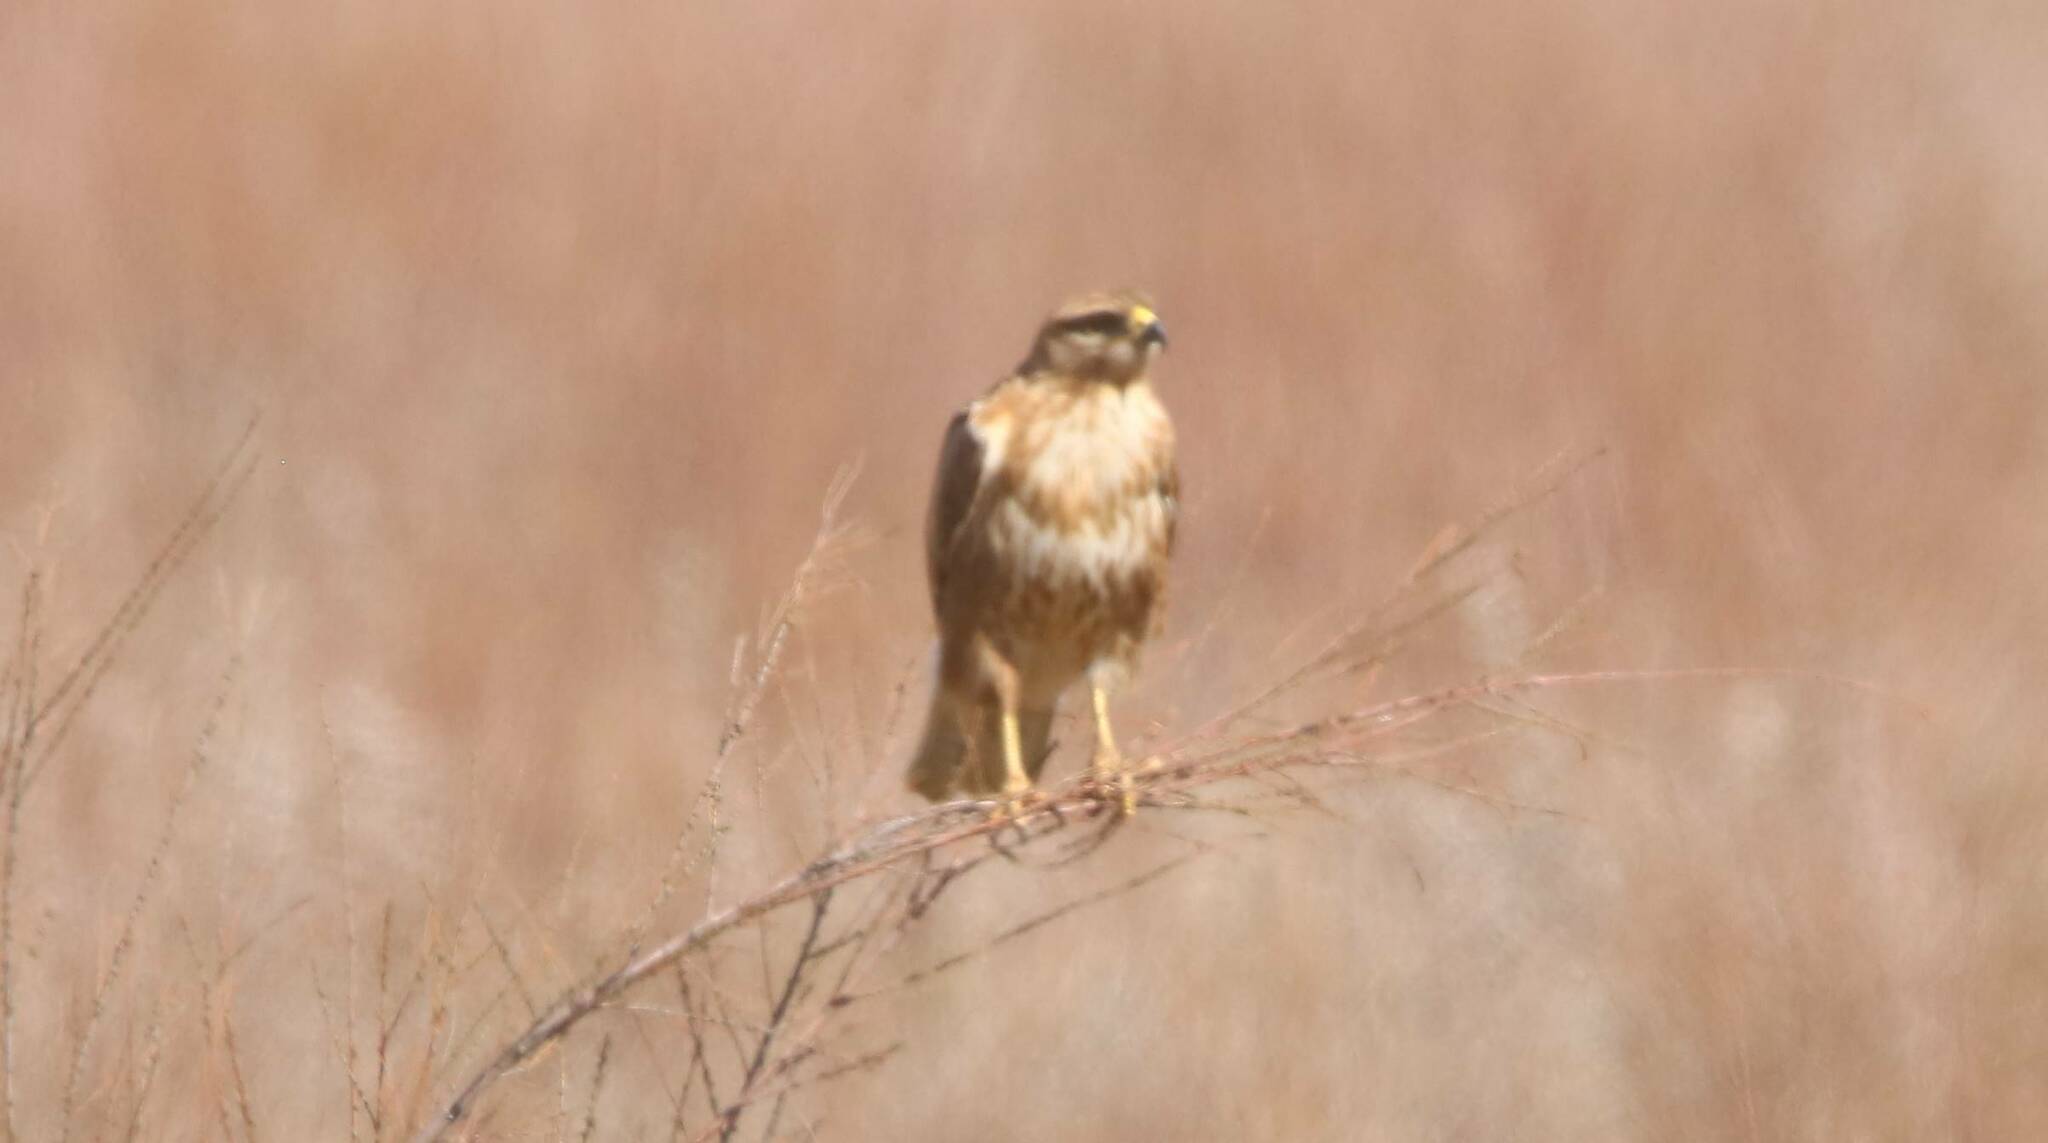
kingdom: Animalia
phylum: Chordata
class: Aves
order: Accipitriformes
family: Accipitridae
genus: Buteo
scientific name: Buteo rufinus
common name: Long-legged buzzard
